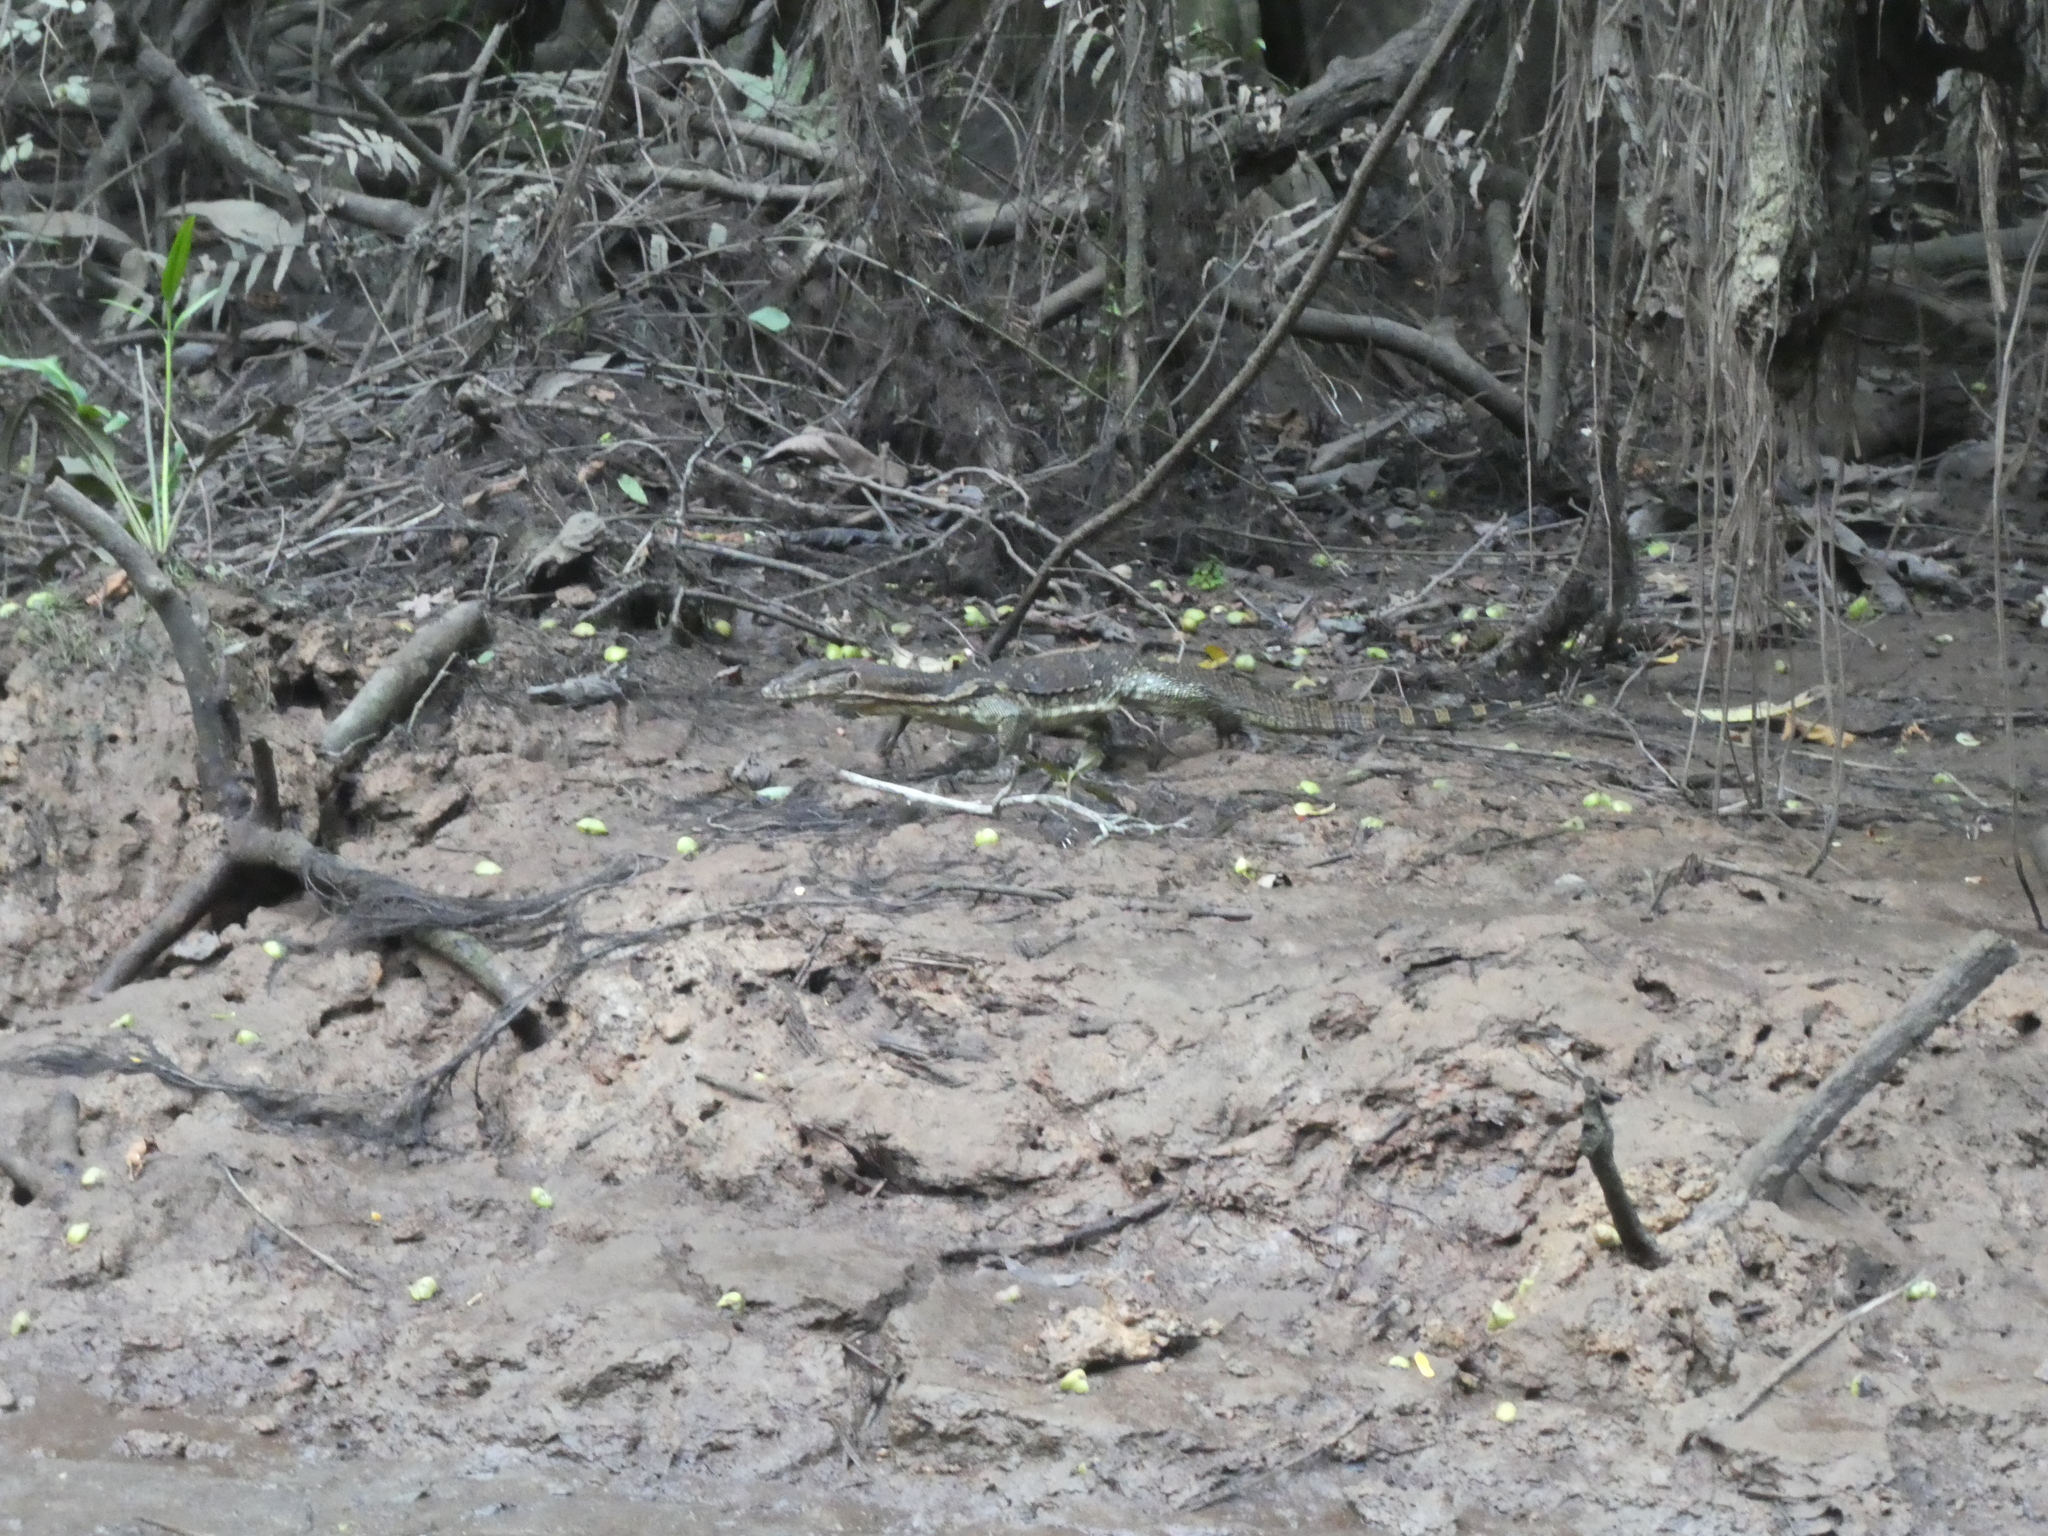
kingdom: Animalia
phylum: Chordata
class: Squamata
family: Varanidae
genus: Varanus
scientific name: Varanus salvator
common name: Common water monitor
